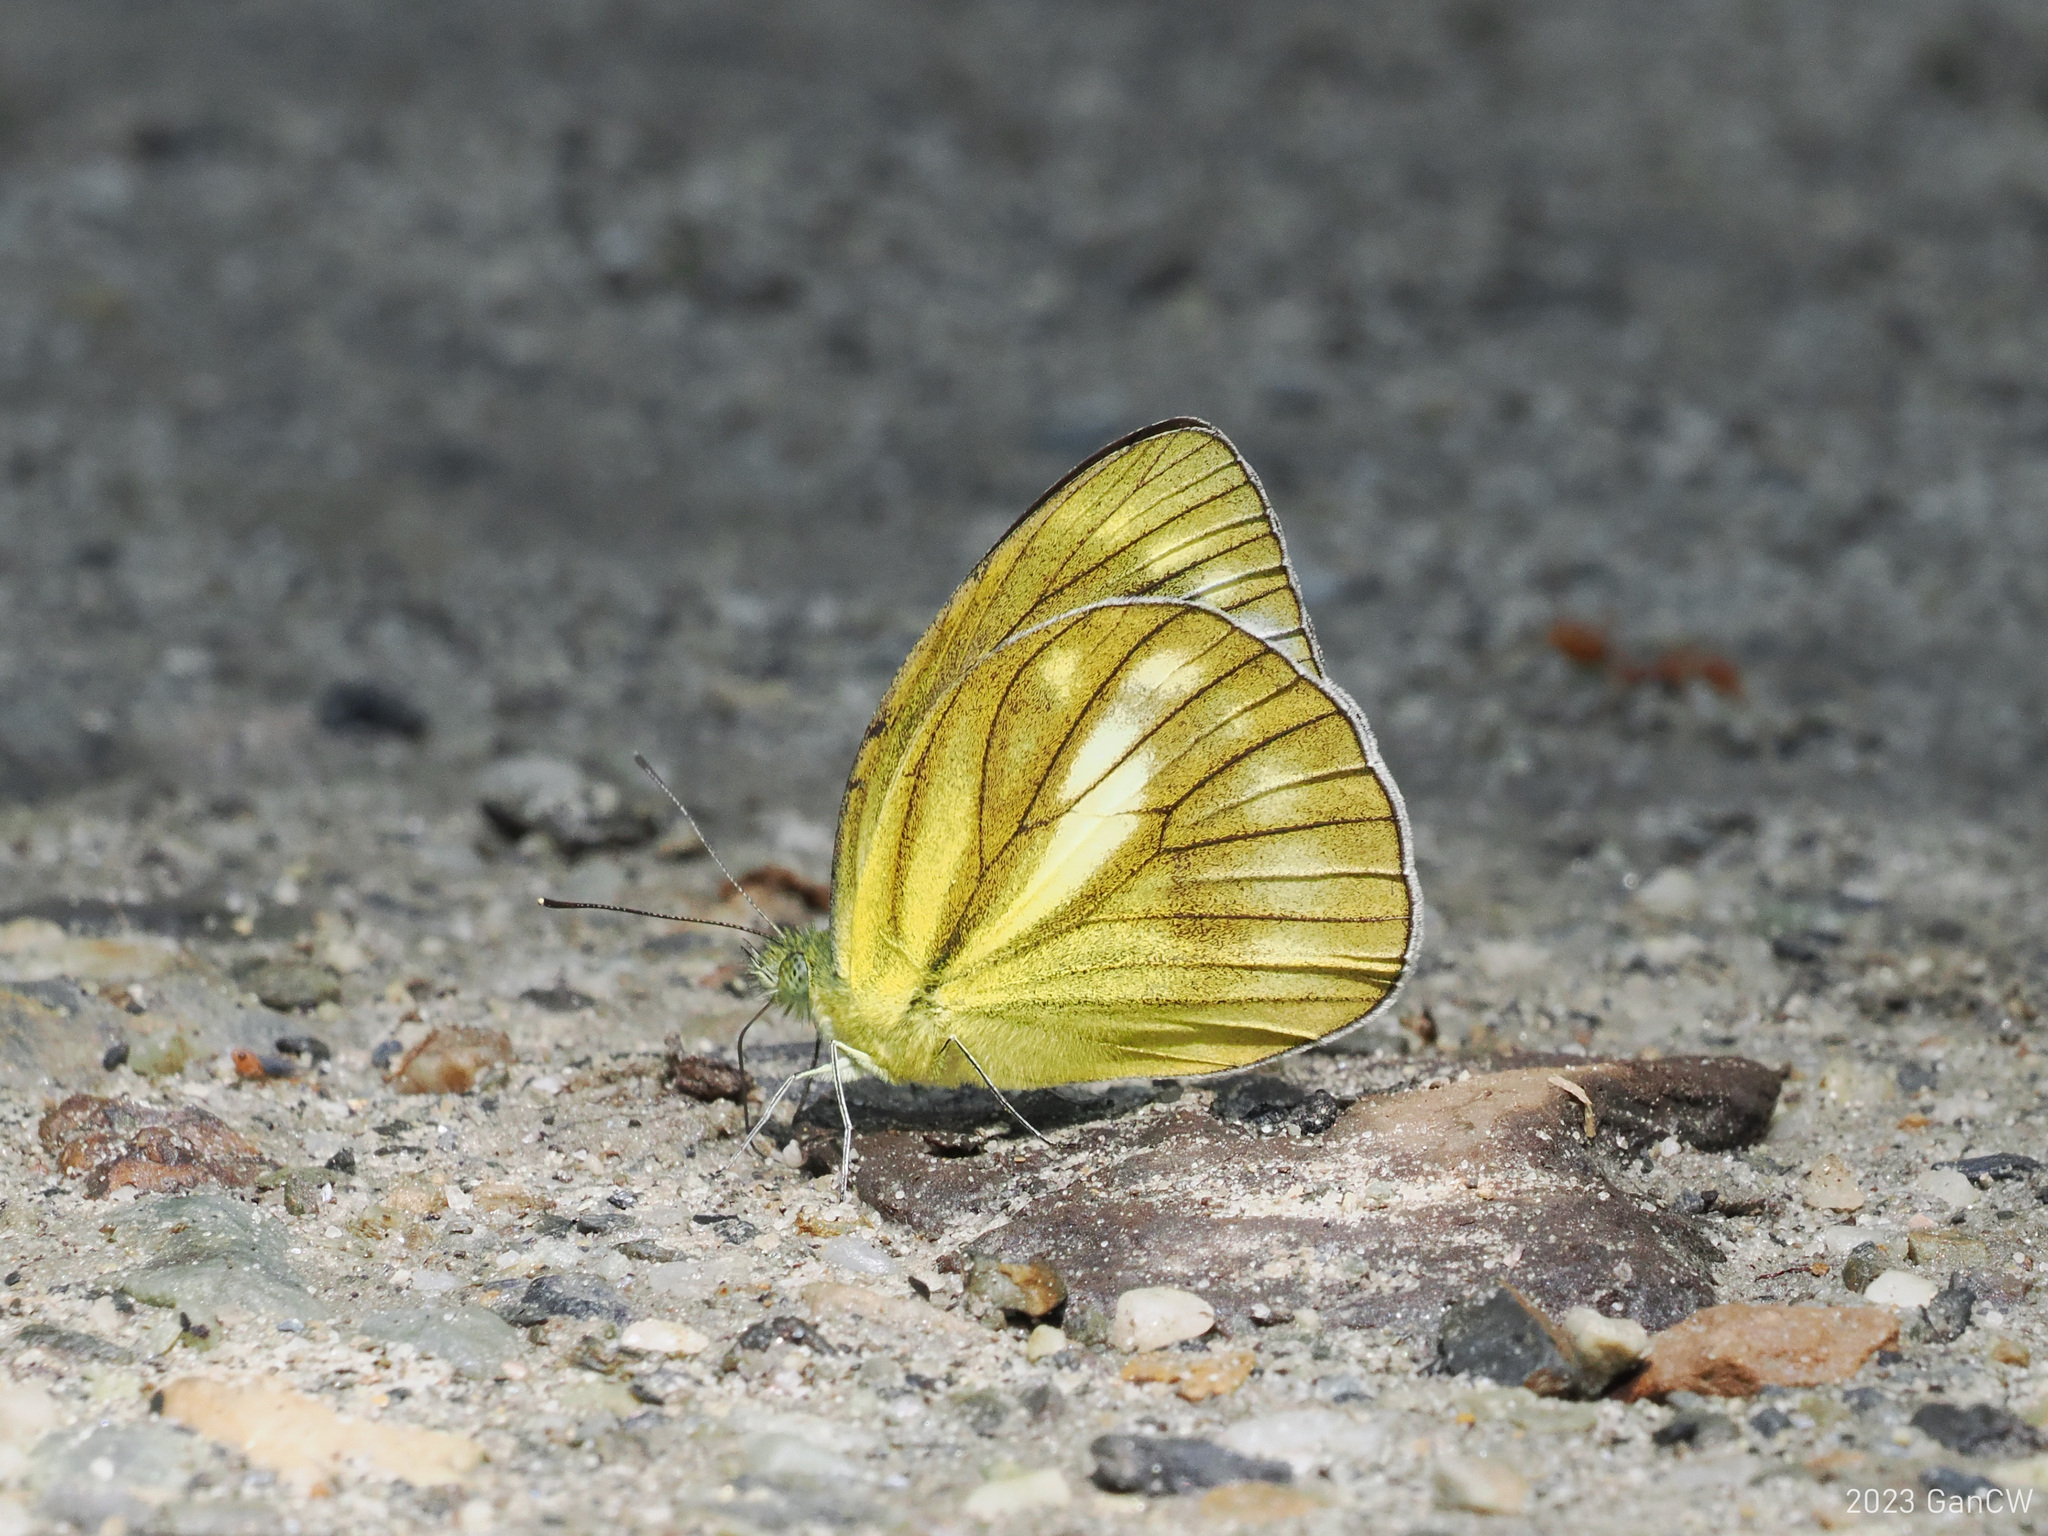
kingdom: Animalia
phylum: Arthropoda
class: Insecta
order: Lepidoptera
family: Pieridae
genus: Cepora
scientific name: Cepora nadina
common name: Lesser gull
